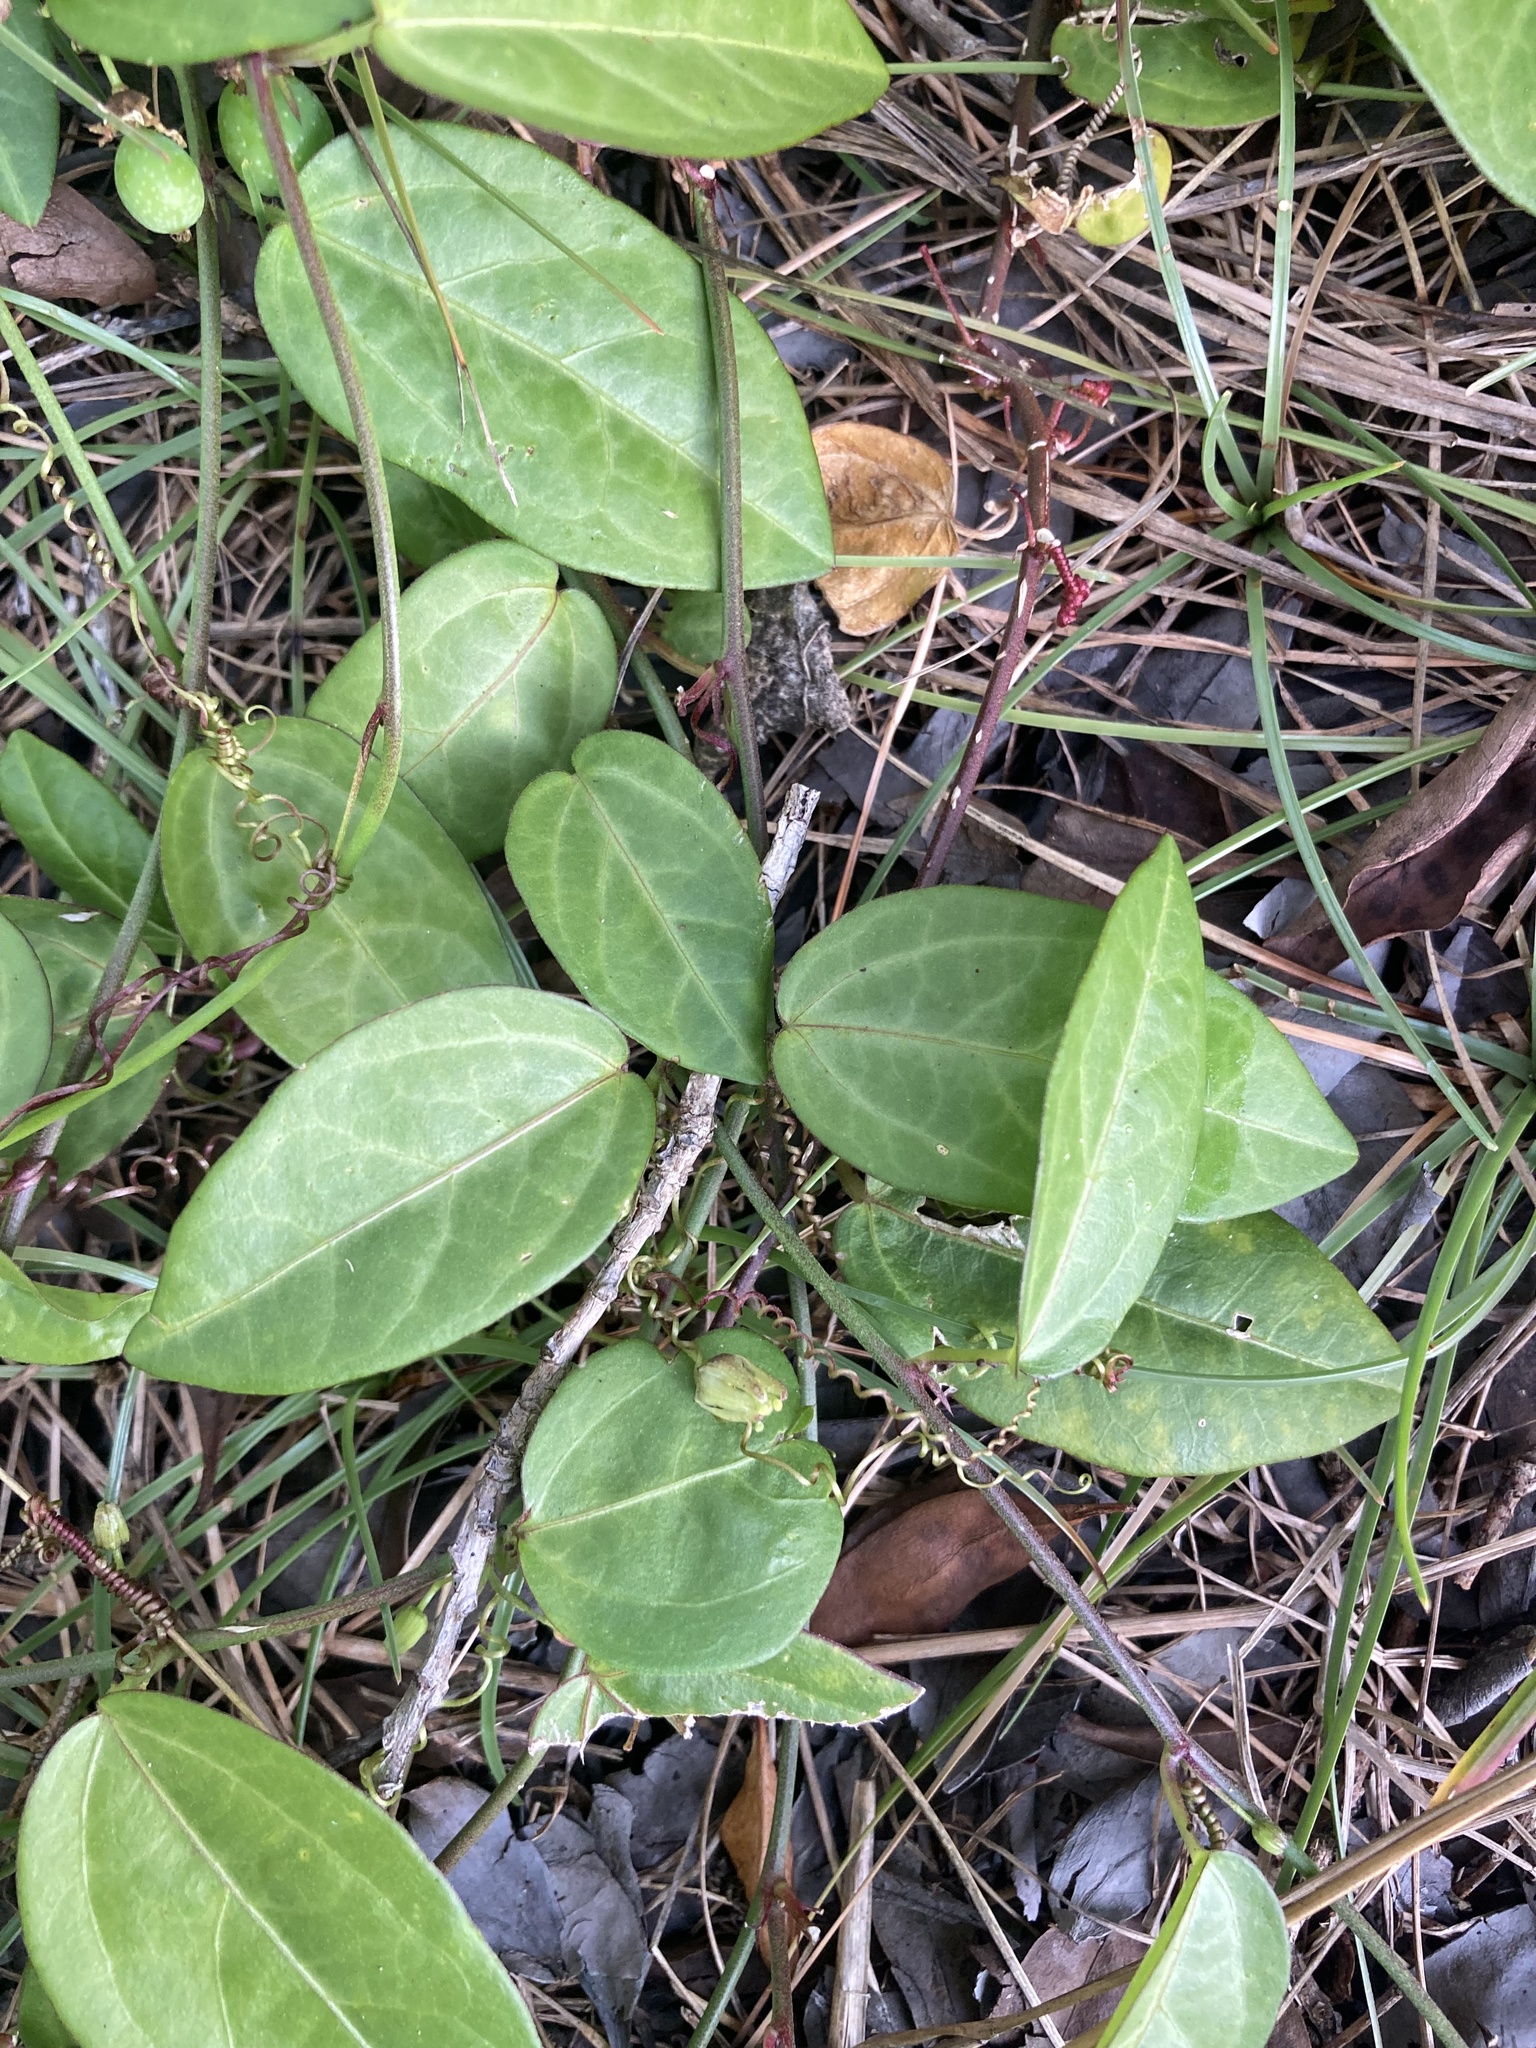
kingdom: Plantae
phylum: Tracheophyta
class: Magnoliopsida
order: Malpighiales
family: Passifloraceae
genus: Passiflora
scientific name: Passiflora pallida
